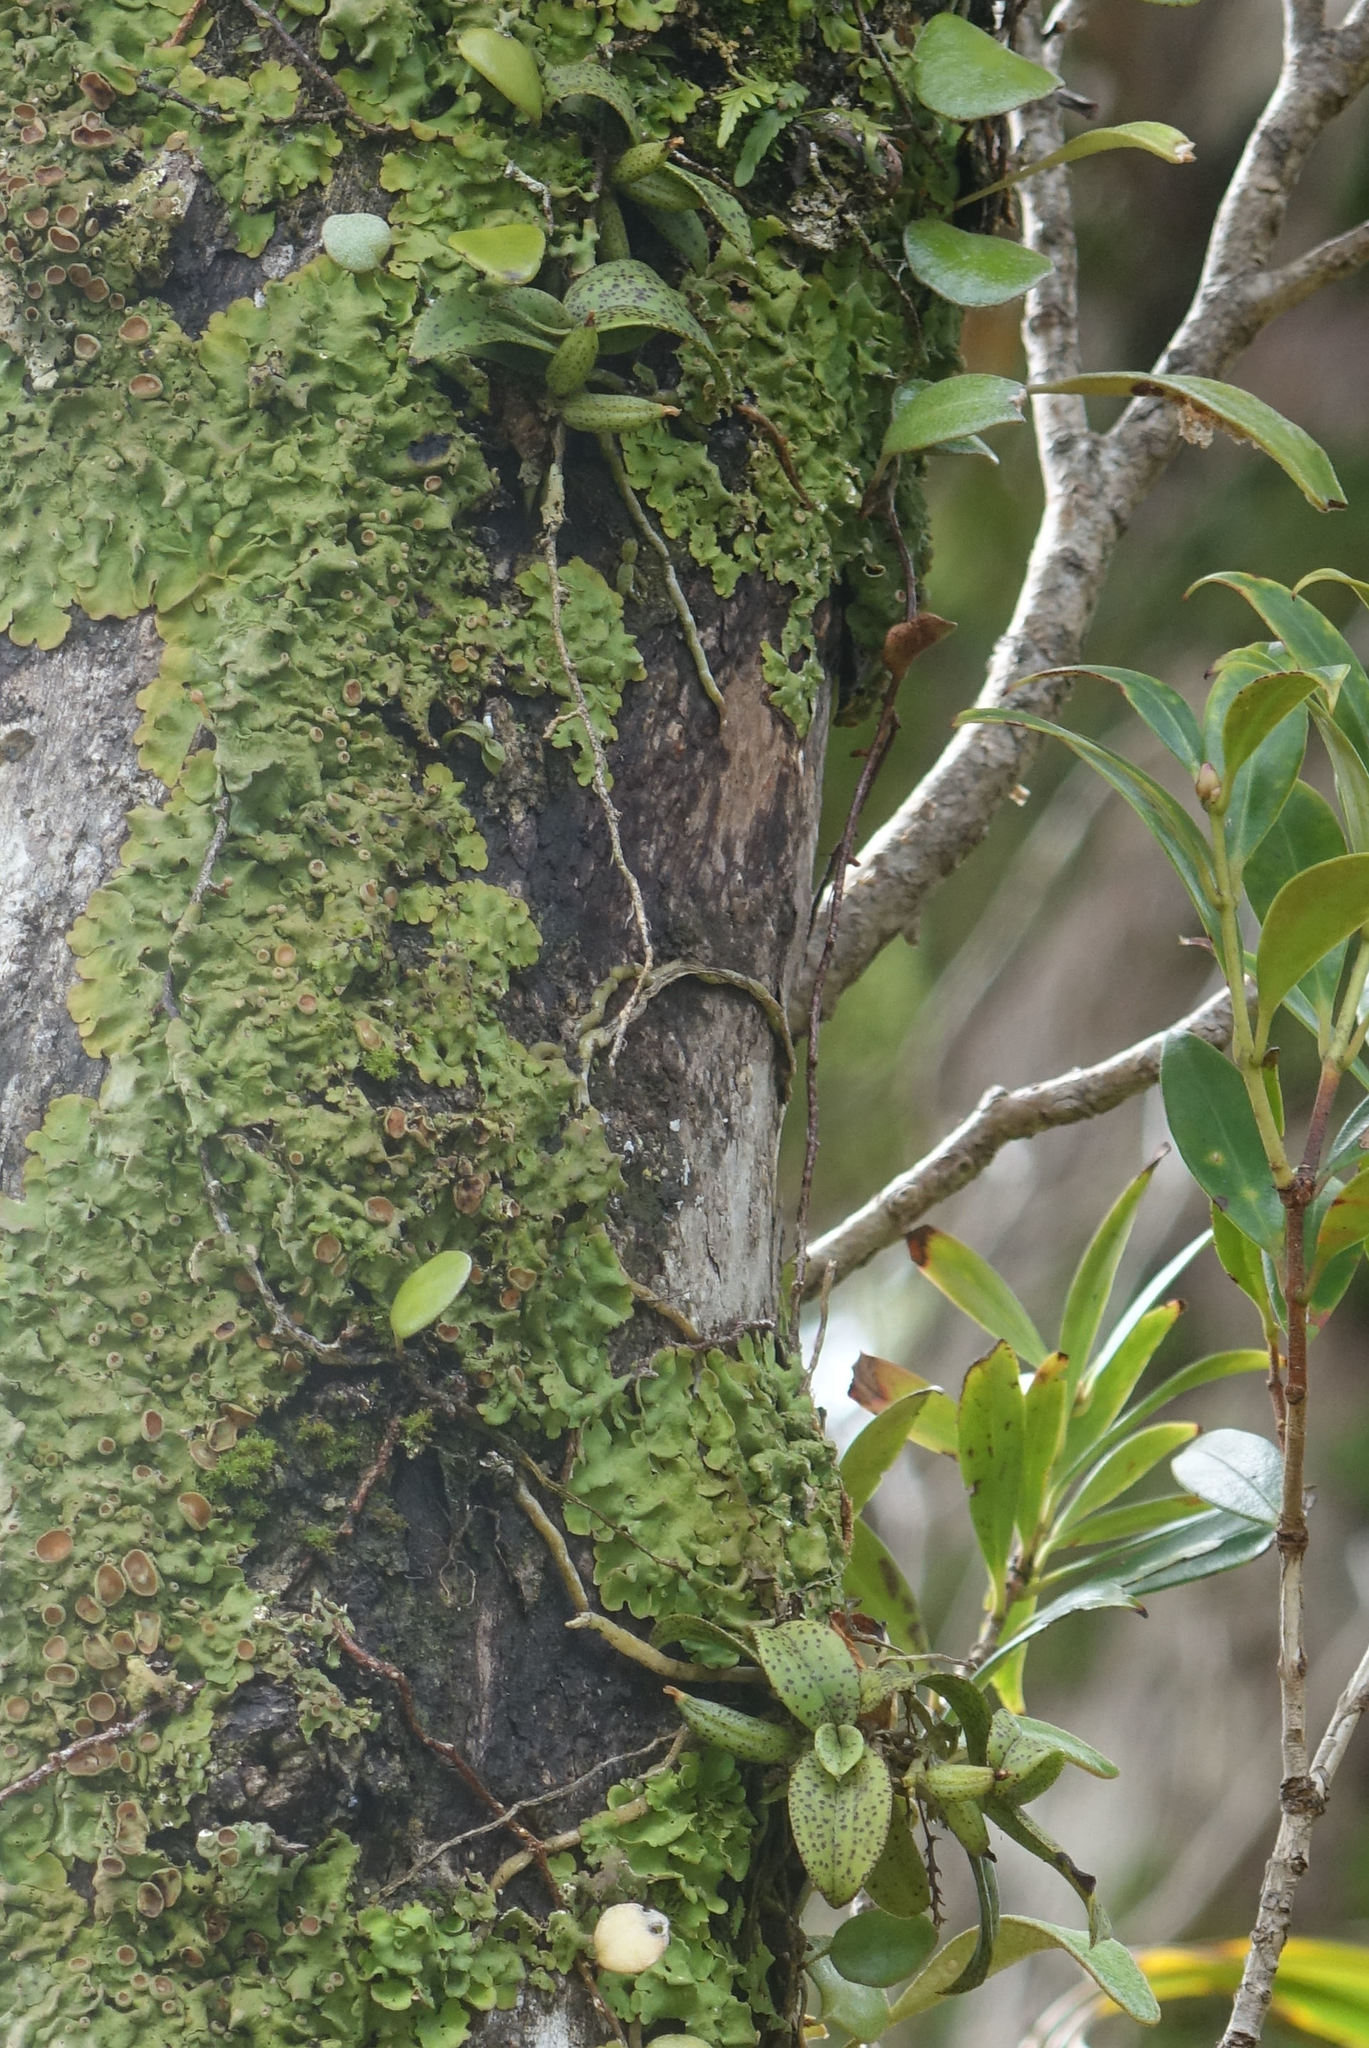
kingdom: Plantae
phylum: Tracheophyta
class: Liliopsida
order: Asparagales
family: Orchidaceae
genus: Drymoanthus
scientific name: Drymoanthus flavus
